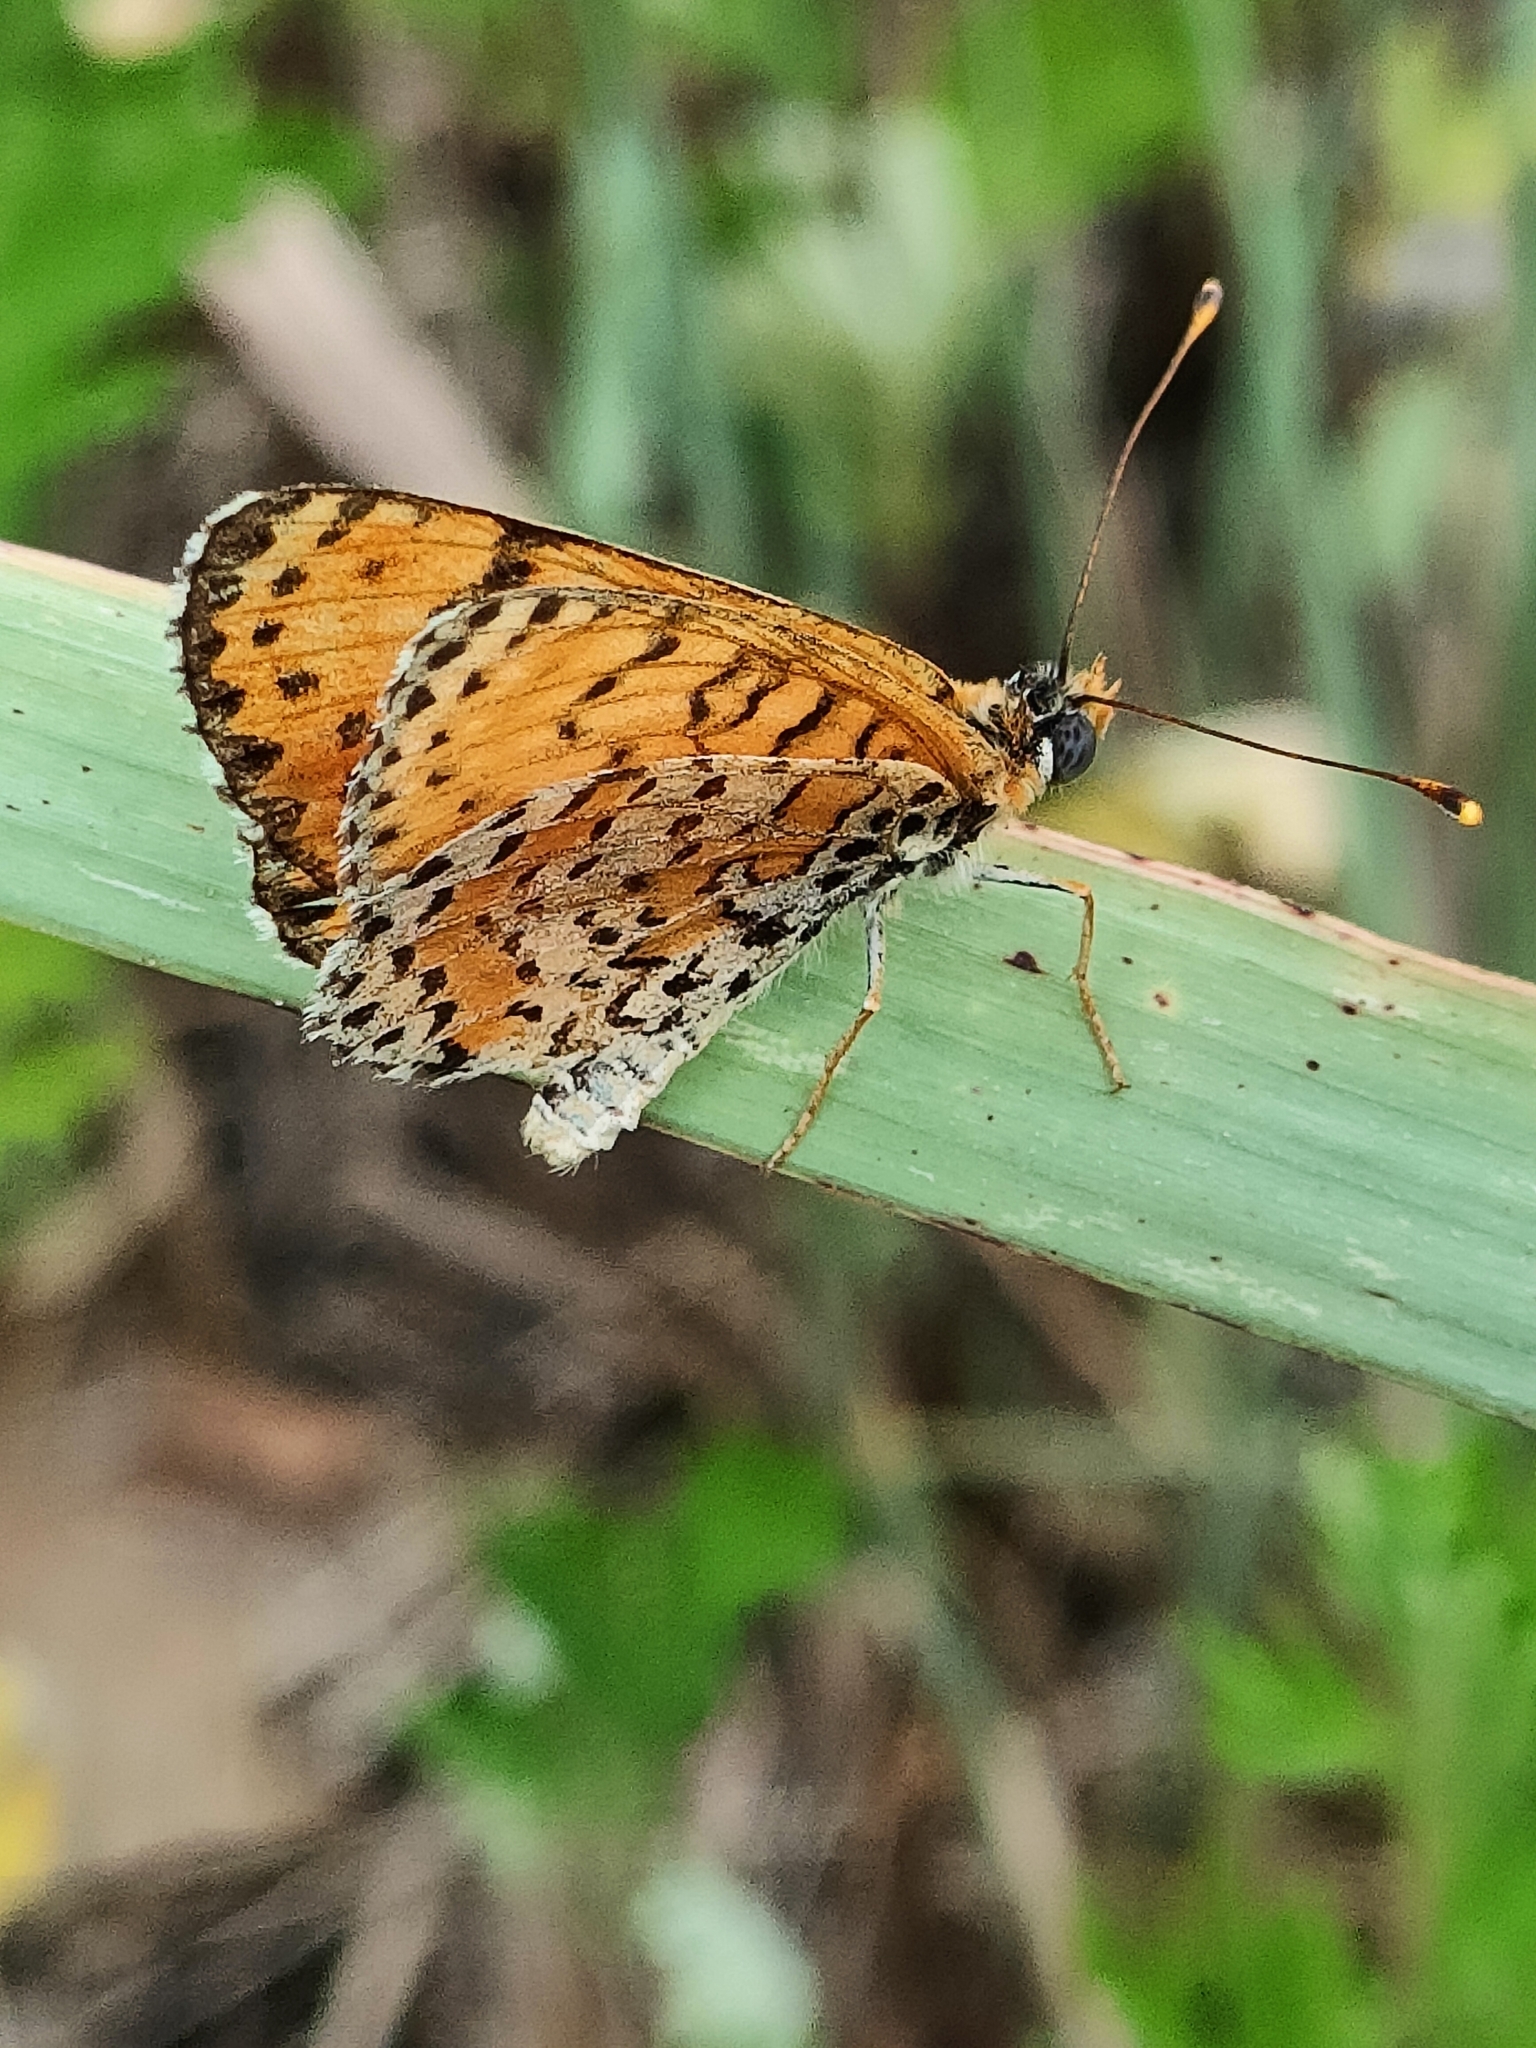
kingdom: Animalia
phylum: Arthropoda
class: Insecta
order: Lepidoptera
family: Nymphalidae
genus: Melitaea
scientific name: Melitaea didyma
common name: Spotted fritillary
